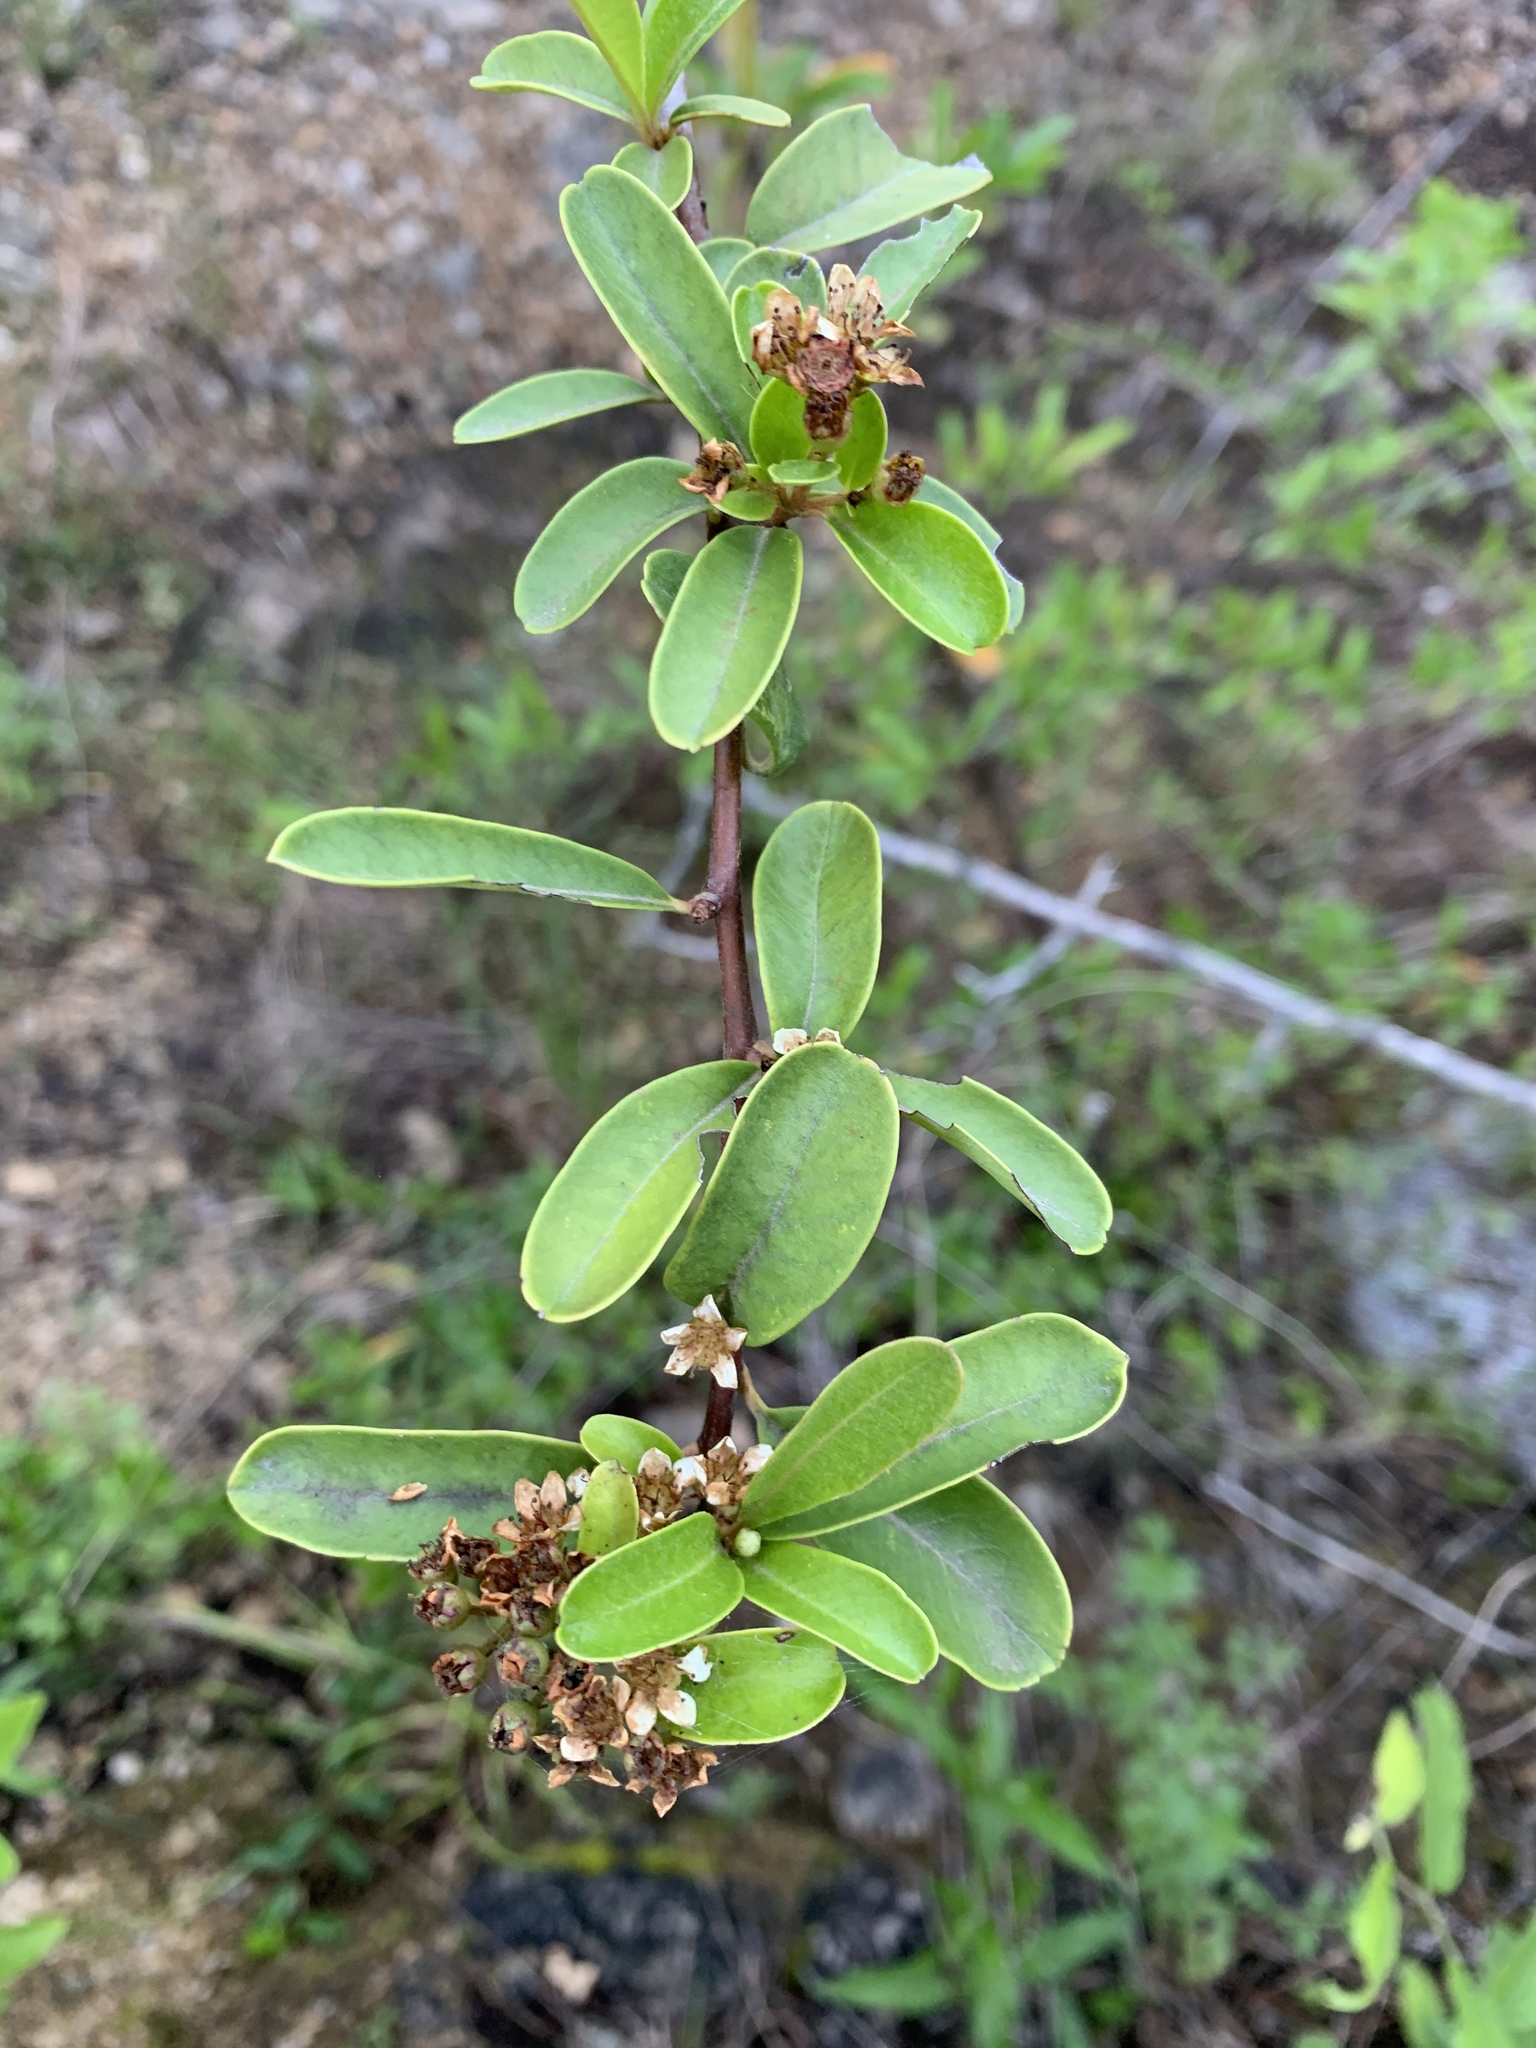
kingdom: Plantae
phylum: Tracheophyta
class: Magnoliopsida
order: Ericales
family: Sapotaceae
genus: Sideroxylon
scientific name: Sideroxylon lanuginosum
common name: Chittamwood
